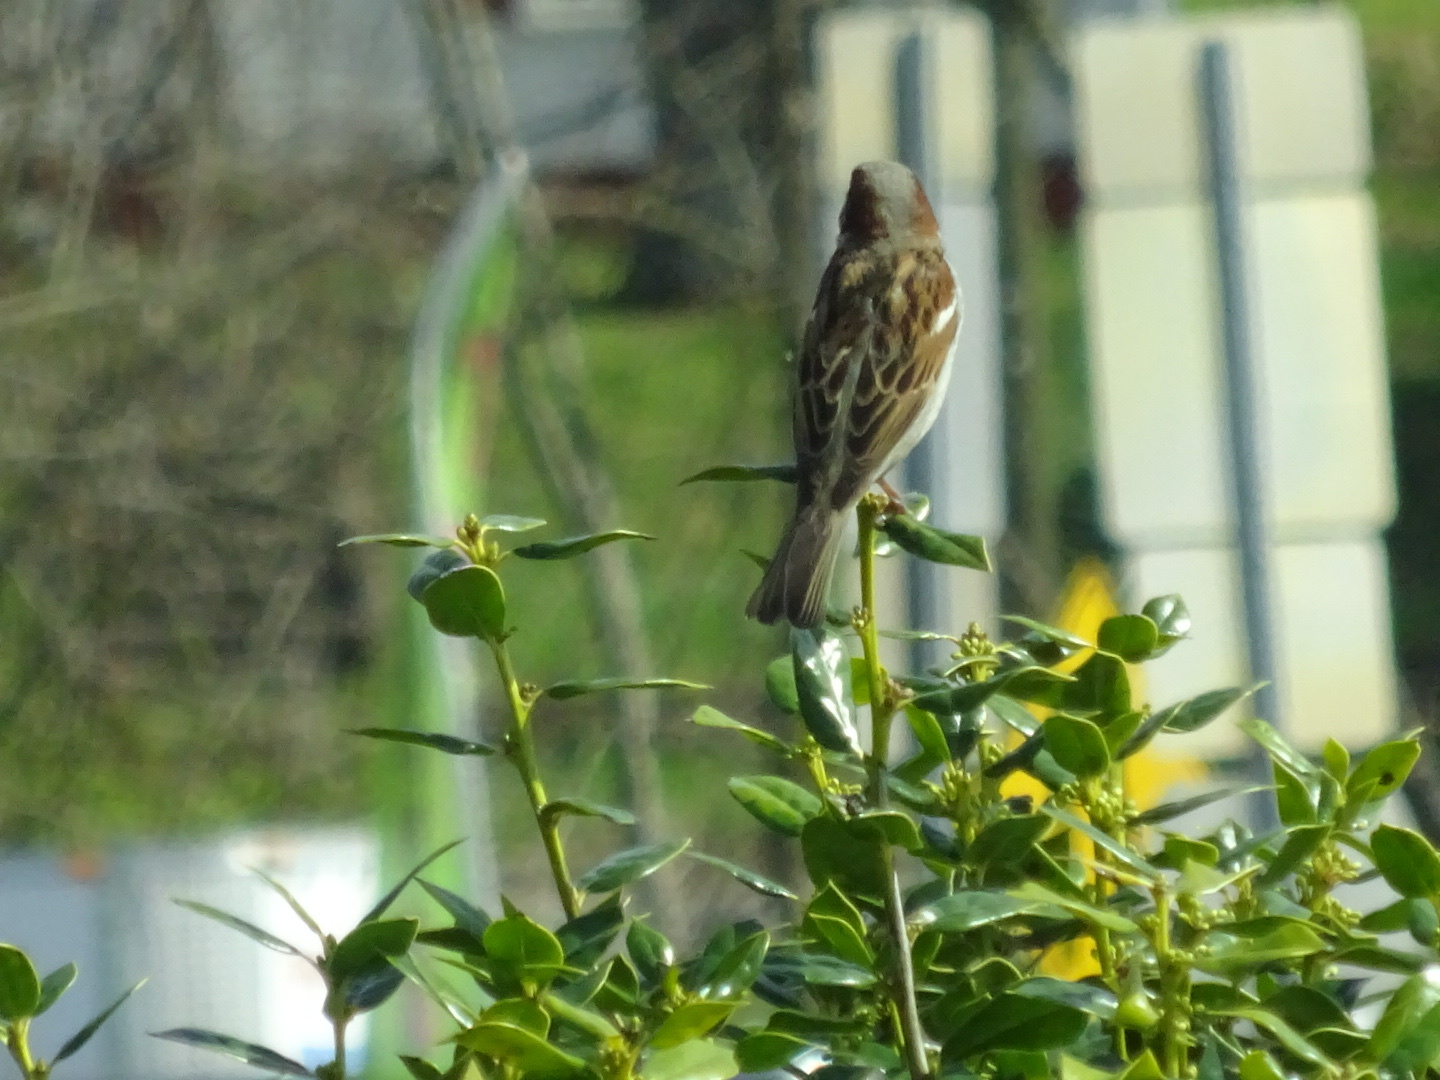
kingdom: Animalia
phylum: Chordata
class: Aves
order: Passeriformes
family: Passeridae
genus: Passer
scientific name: Passer domesticus
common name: House sparrow
